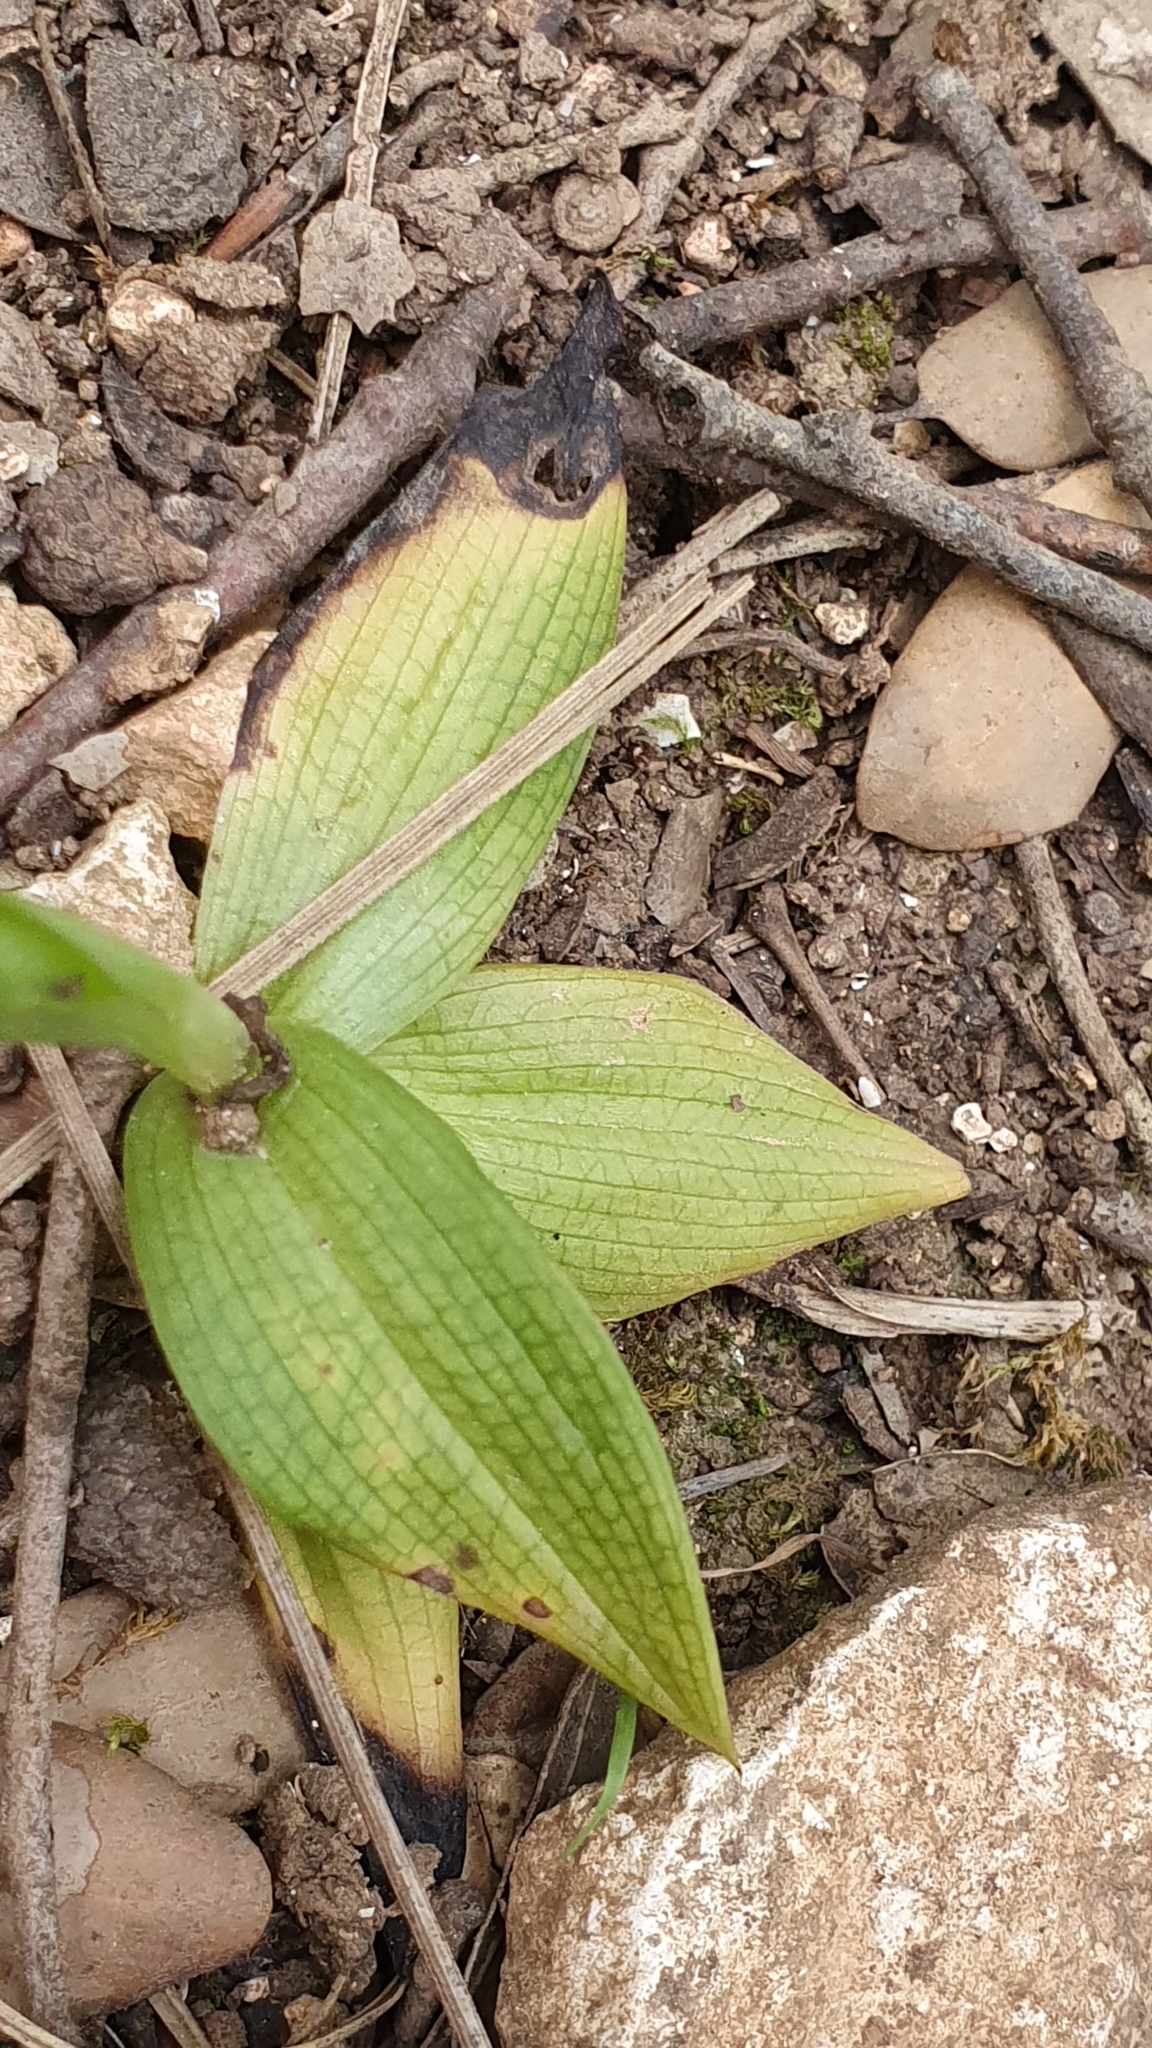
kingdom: Plantae
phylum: Tracheophyta
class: Liliopsida
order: Asparagales
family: Orchidaceae
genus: Ophrys
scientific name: Ophrys lutea
